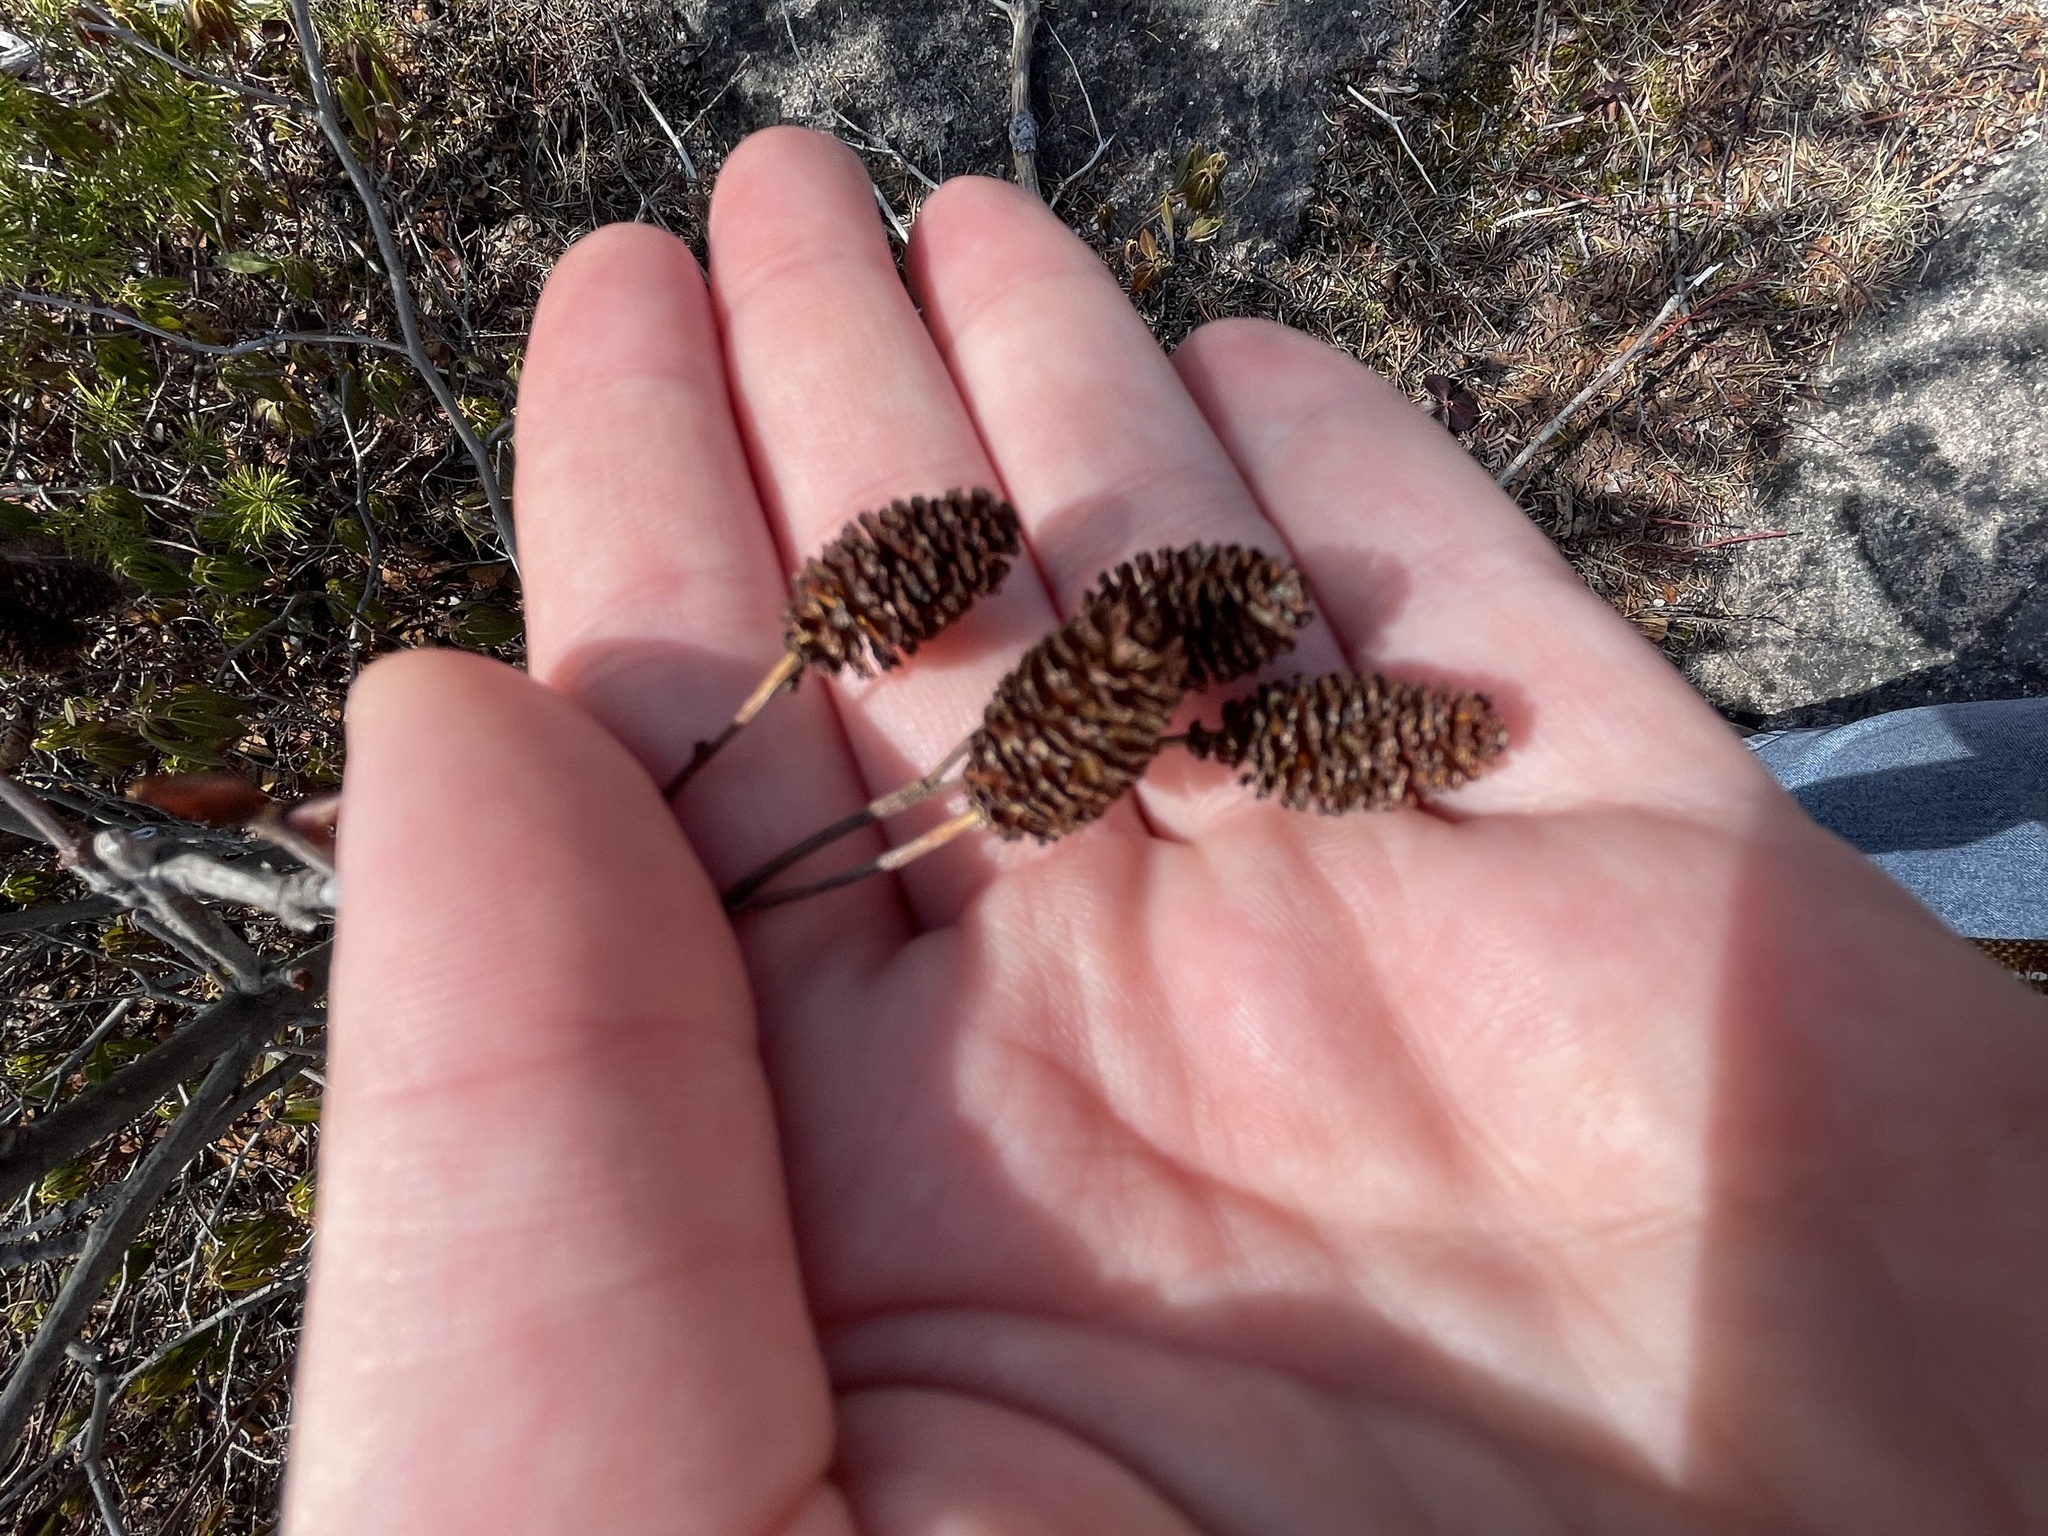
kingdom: Plantae
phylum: Tracheophyta
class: Magnoliopsida
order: Fagales
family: Betulaceae
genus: Alnus
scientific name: Alnus alnobetula
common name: Green alder
